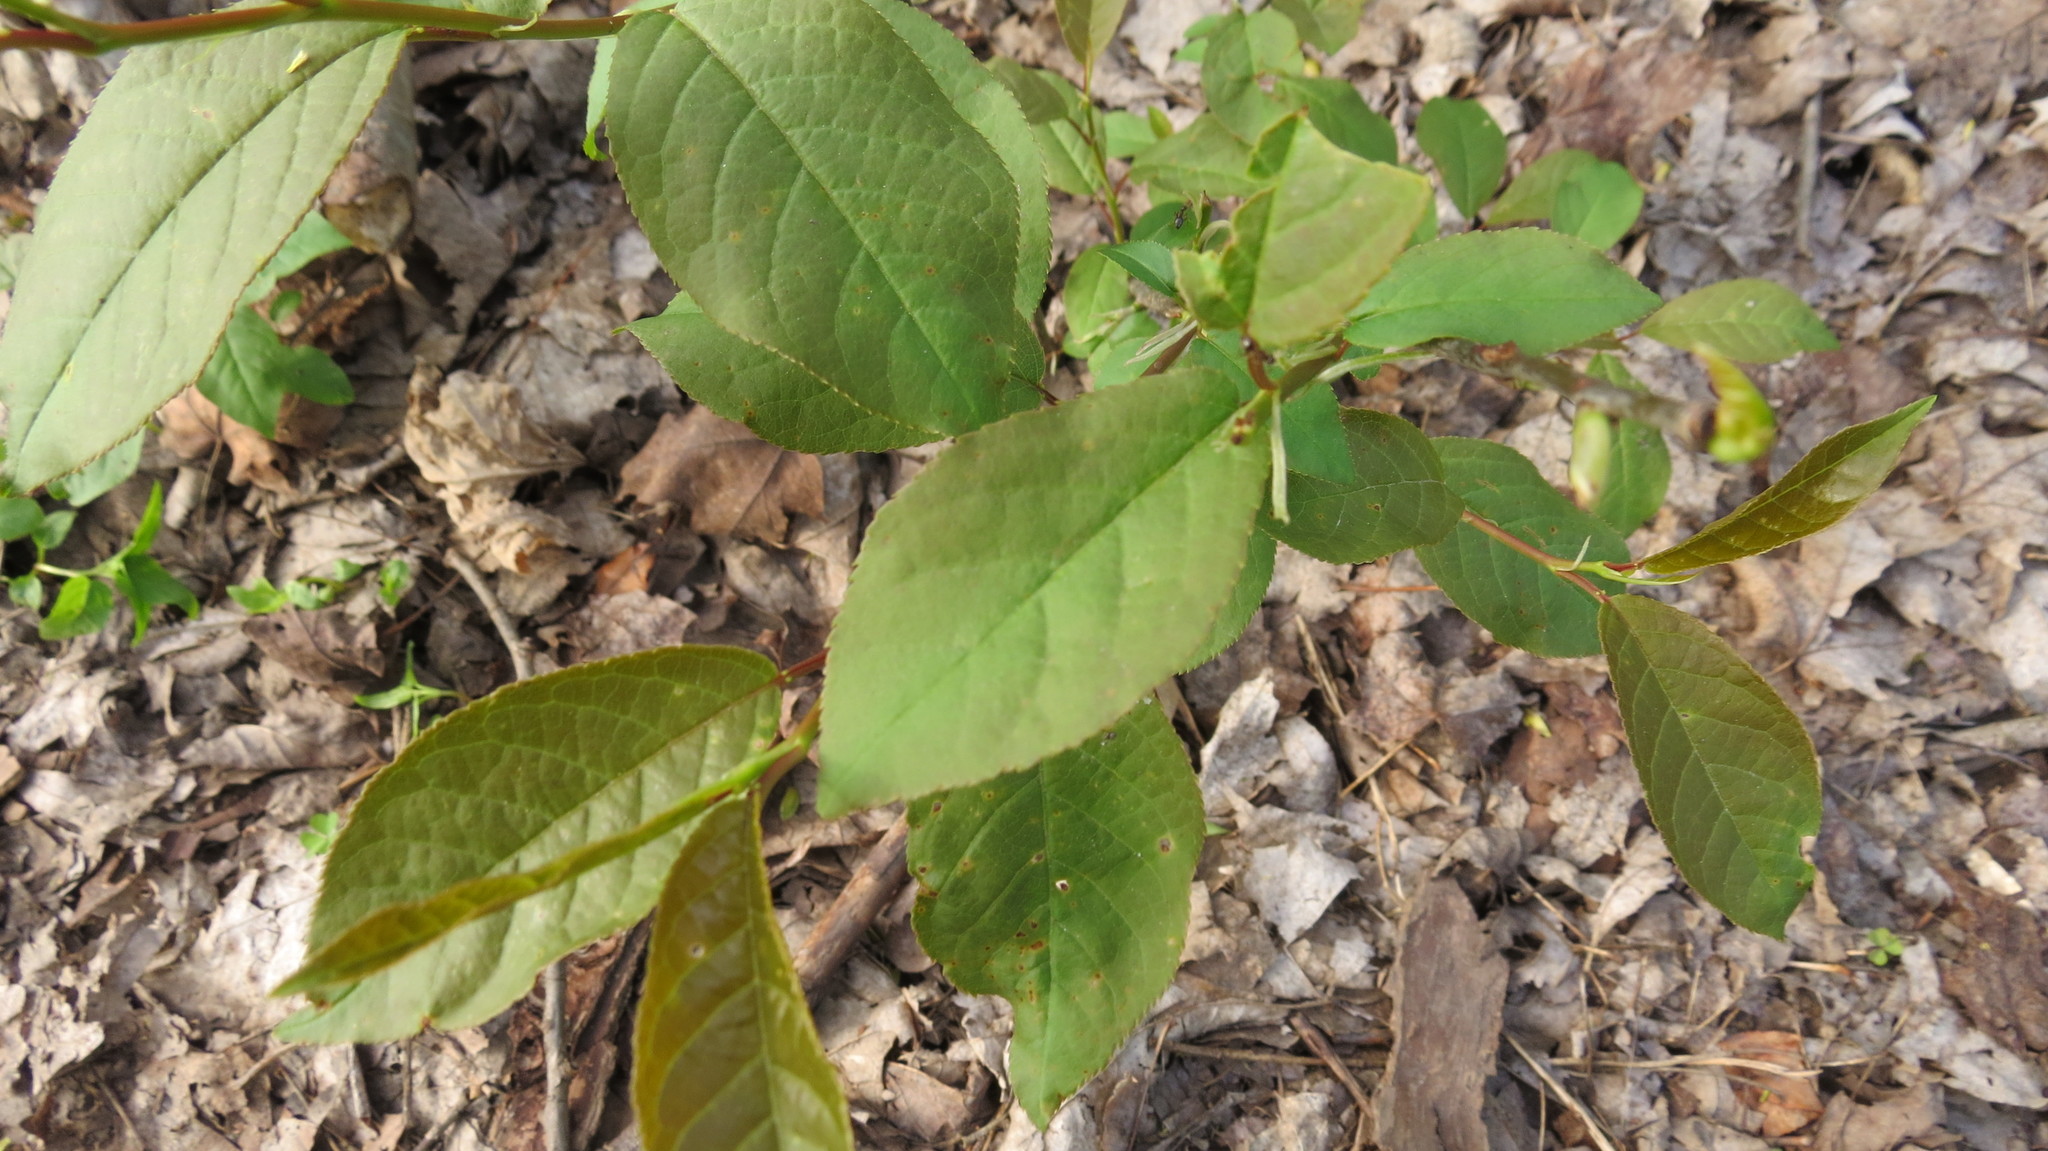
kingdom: Plantae
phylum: Tracheophyta
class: Magnoliopsida
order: Rosales
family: Rosaceae
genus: Prunus
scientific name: Prunus virginiana
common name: Chokecherry
